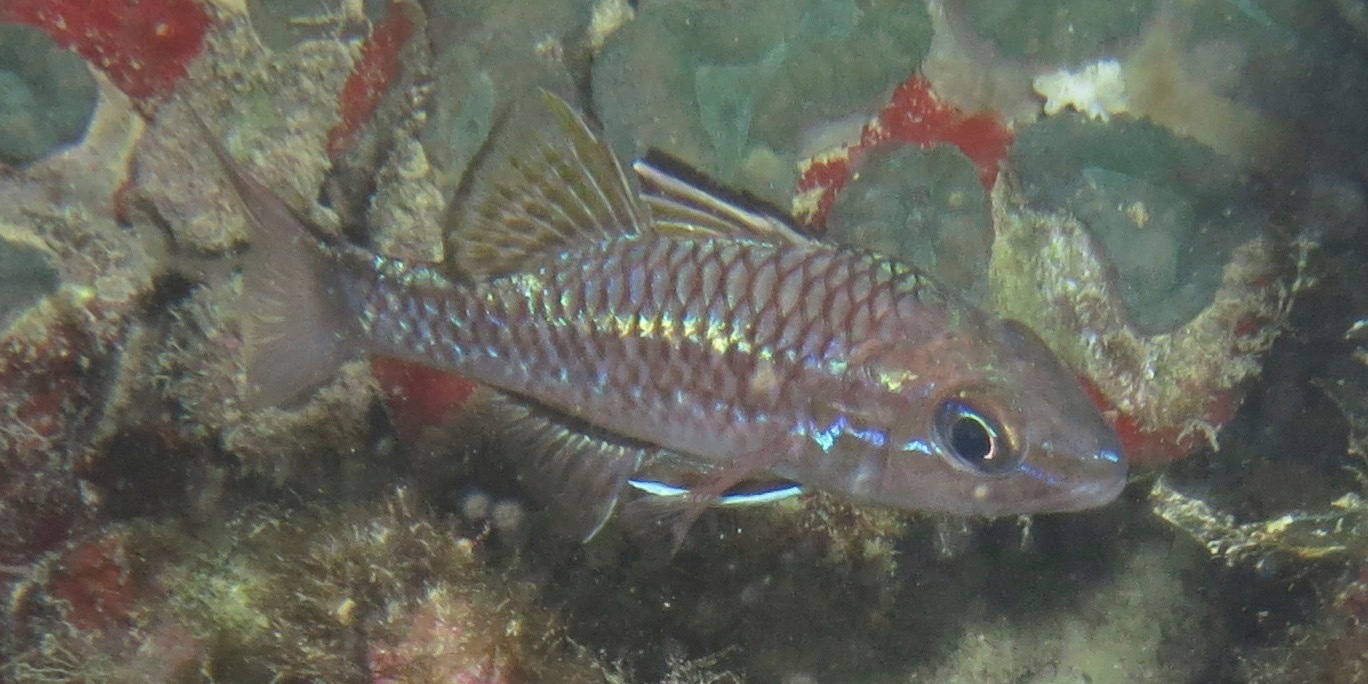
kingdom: Animalia
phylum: Chordata
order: Perciformes
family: Apogonidae
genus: Pristiapogon
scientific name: Pristiapogon taeniopterus
